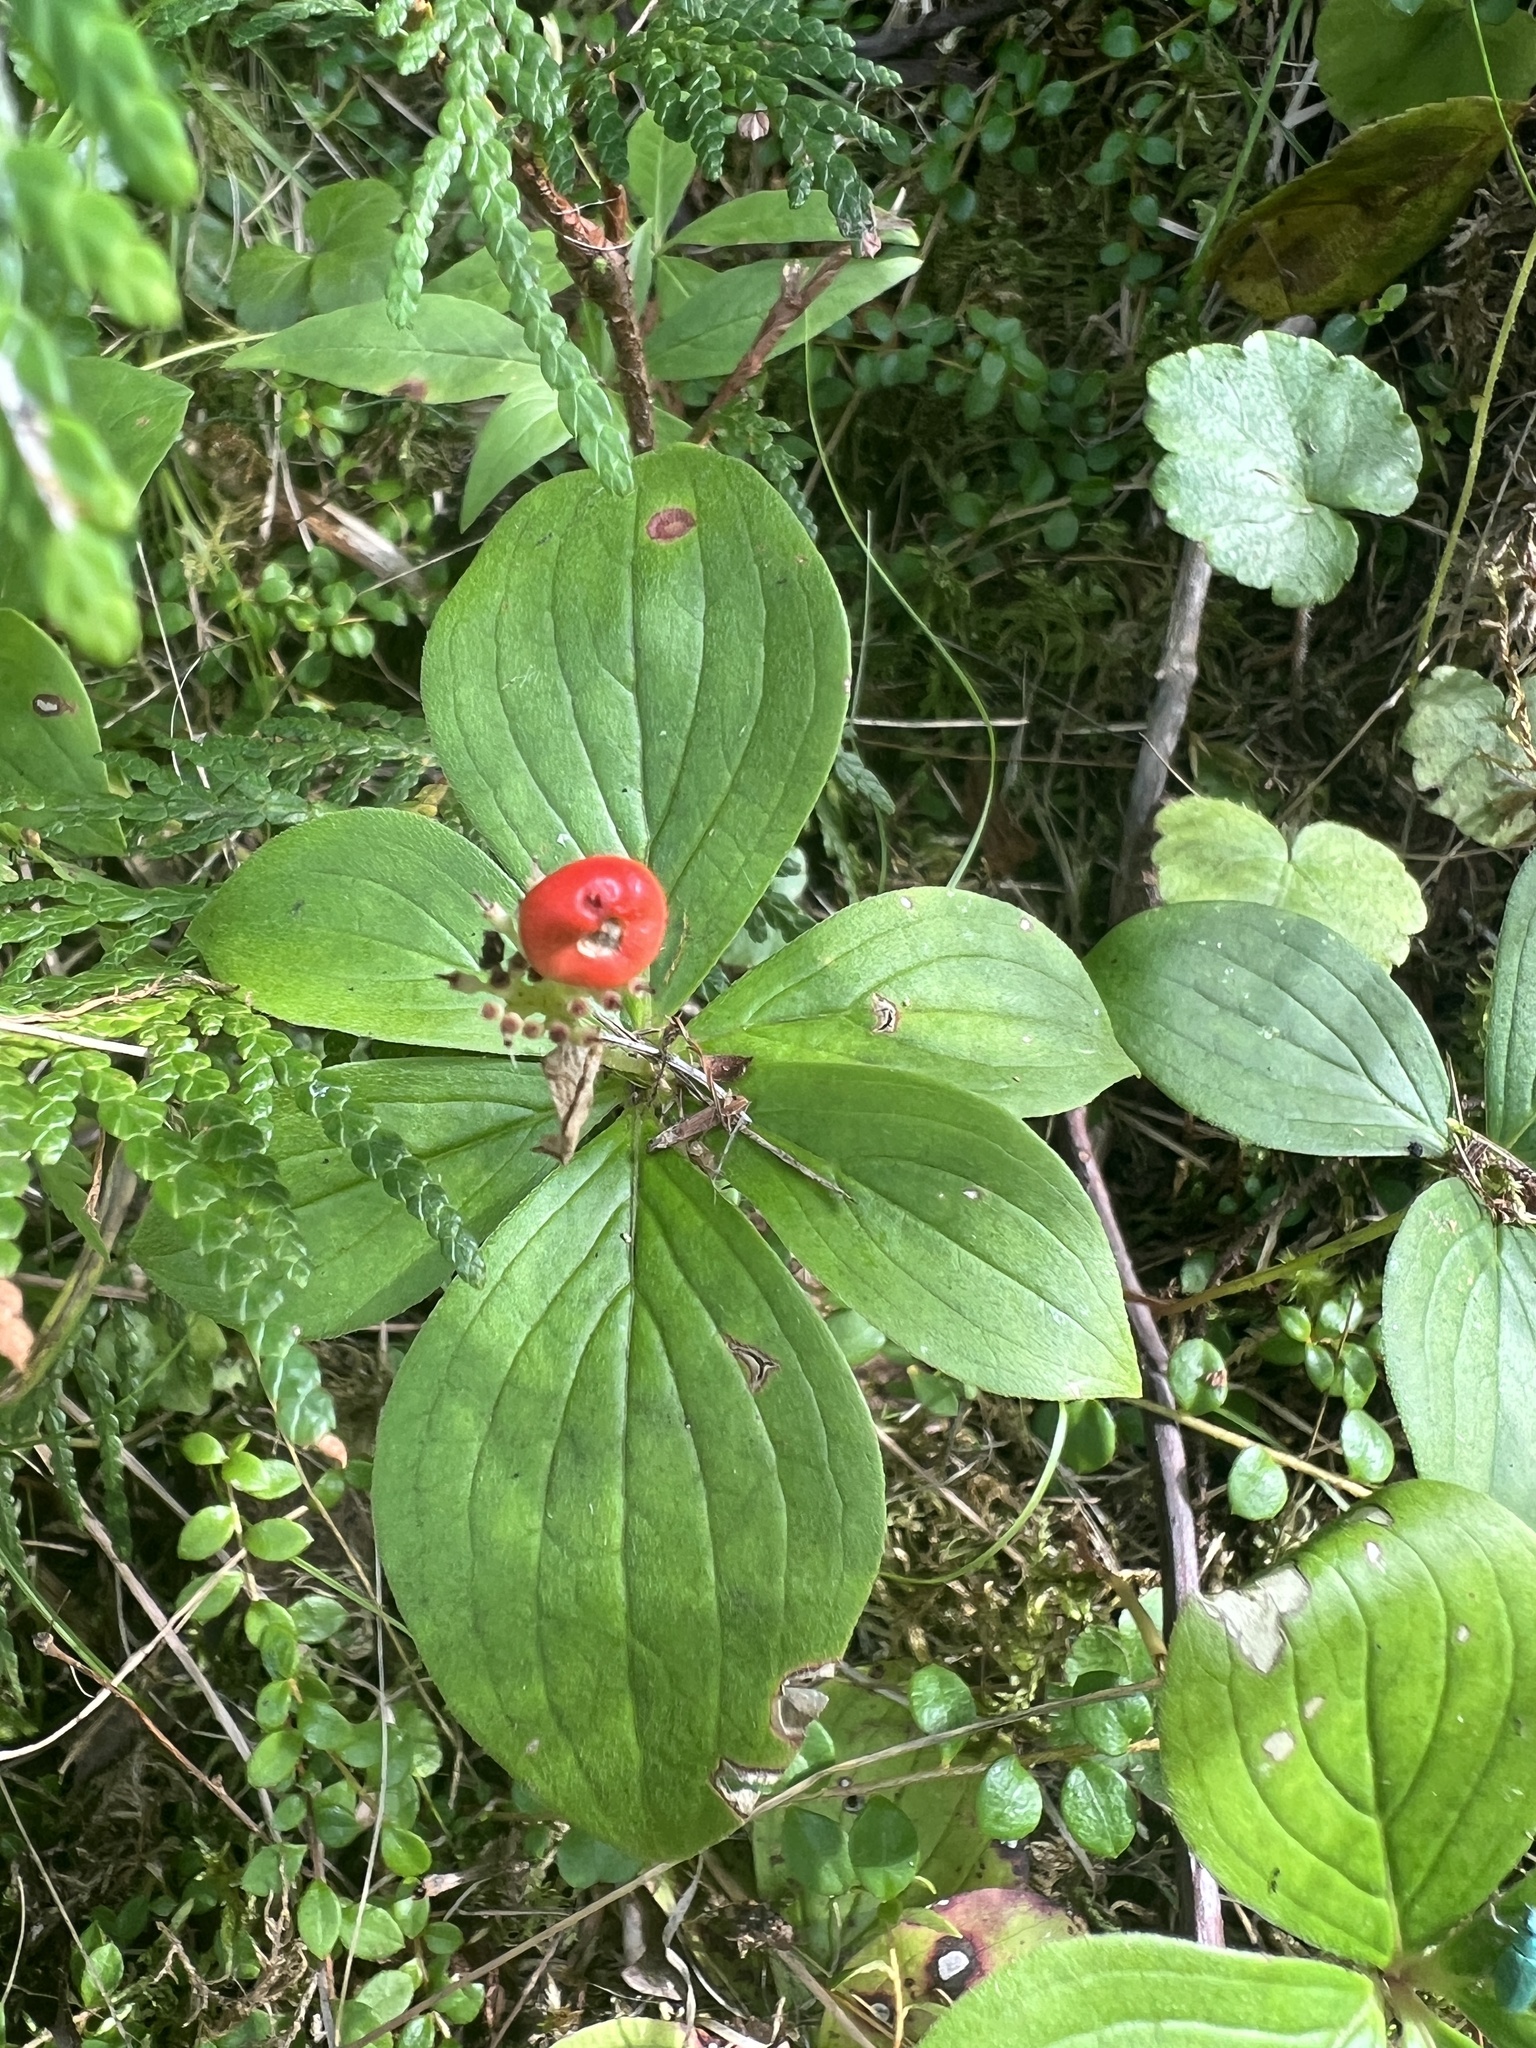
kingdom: Plantae
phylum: Tracheophyta
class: Magnoliopsida
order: Cornales
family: Cornaceae
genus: Cornus
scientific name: Cornus canadensis
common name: Creeping dogwood
